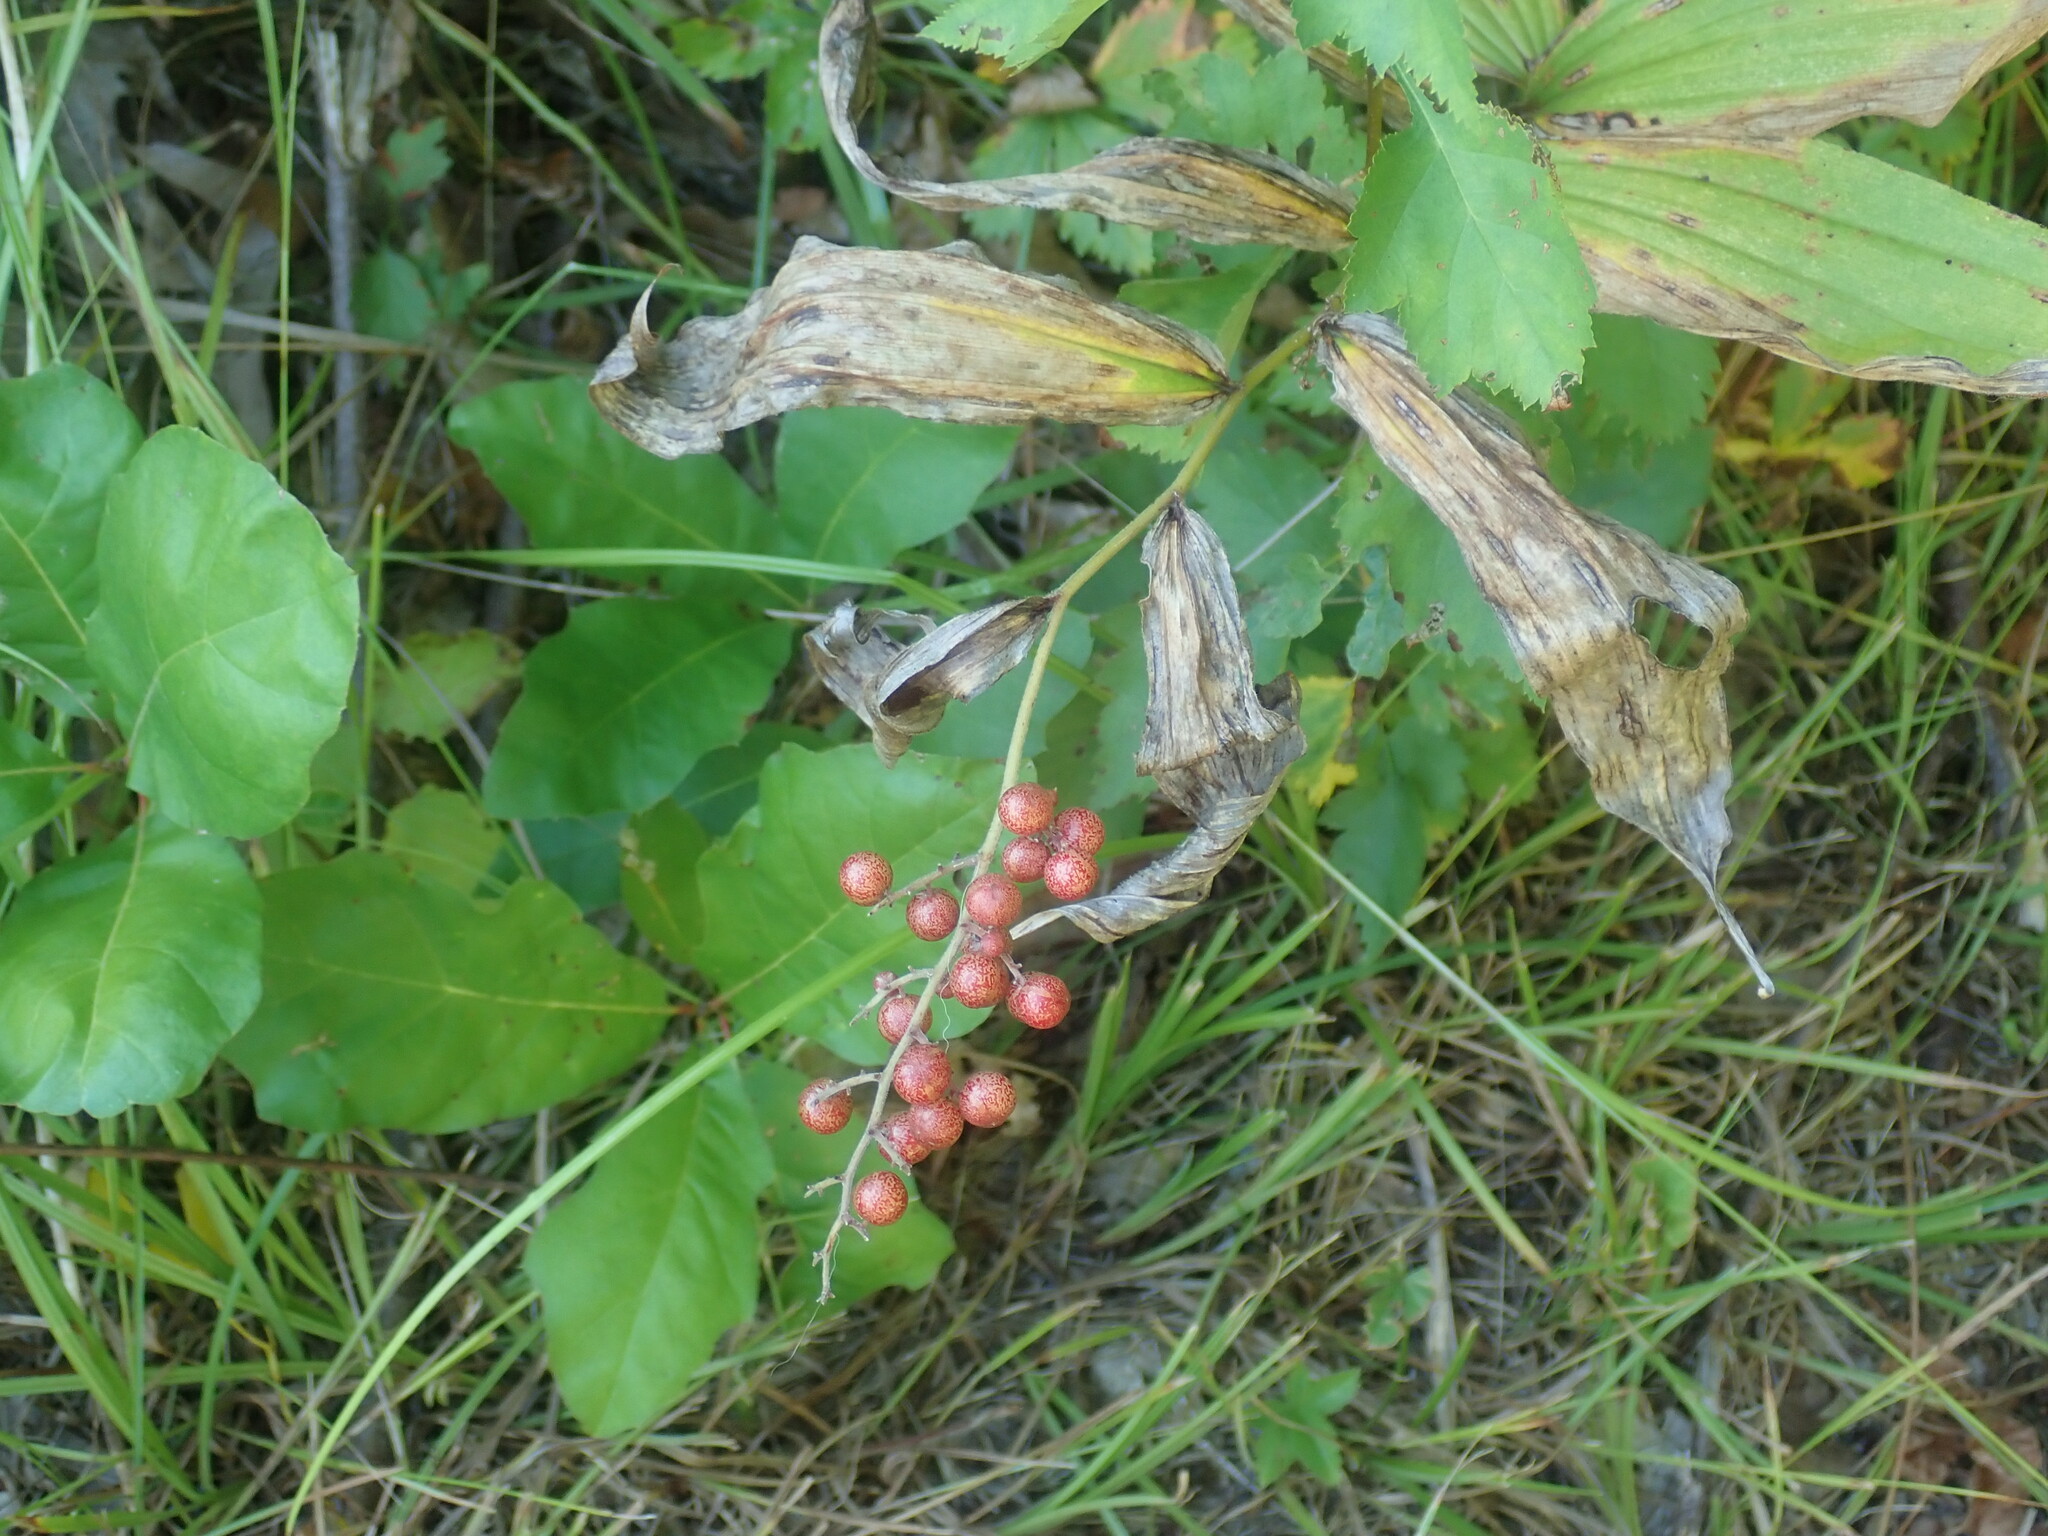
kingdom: Plantae
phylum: Tracheophyta
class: Liliopsida
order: Asparagales
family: Asparagaceae
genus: Maianthemum
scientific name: Maianthemum racemosum
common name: False spikenard
